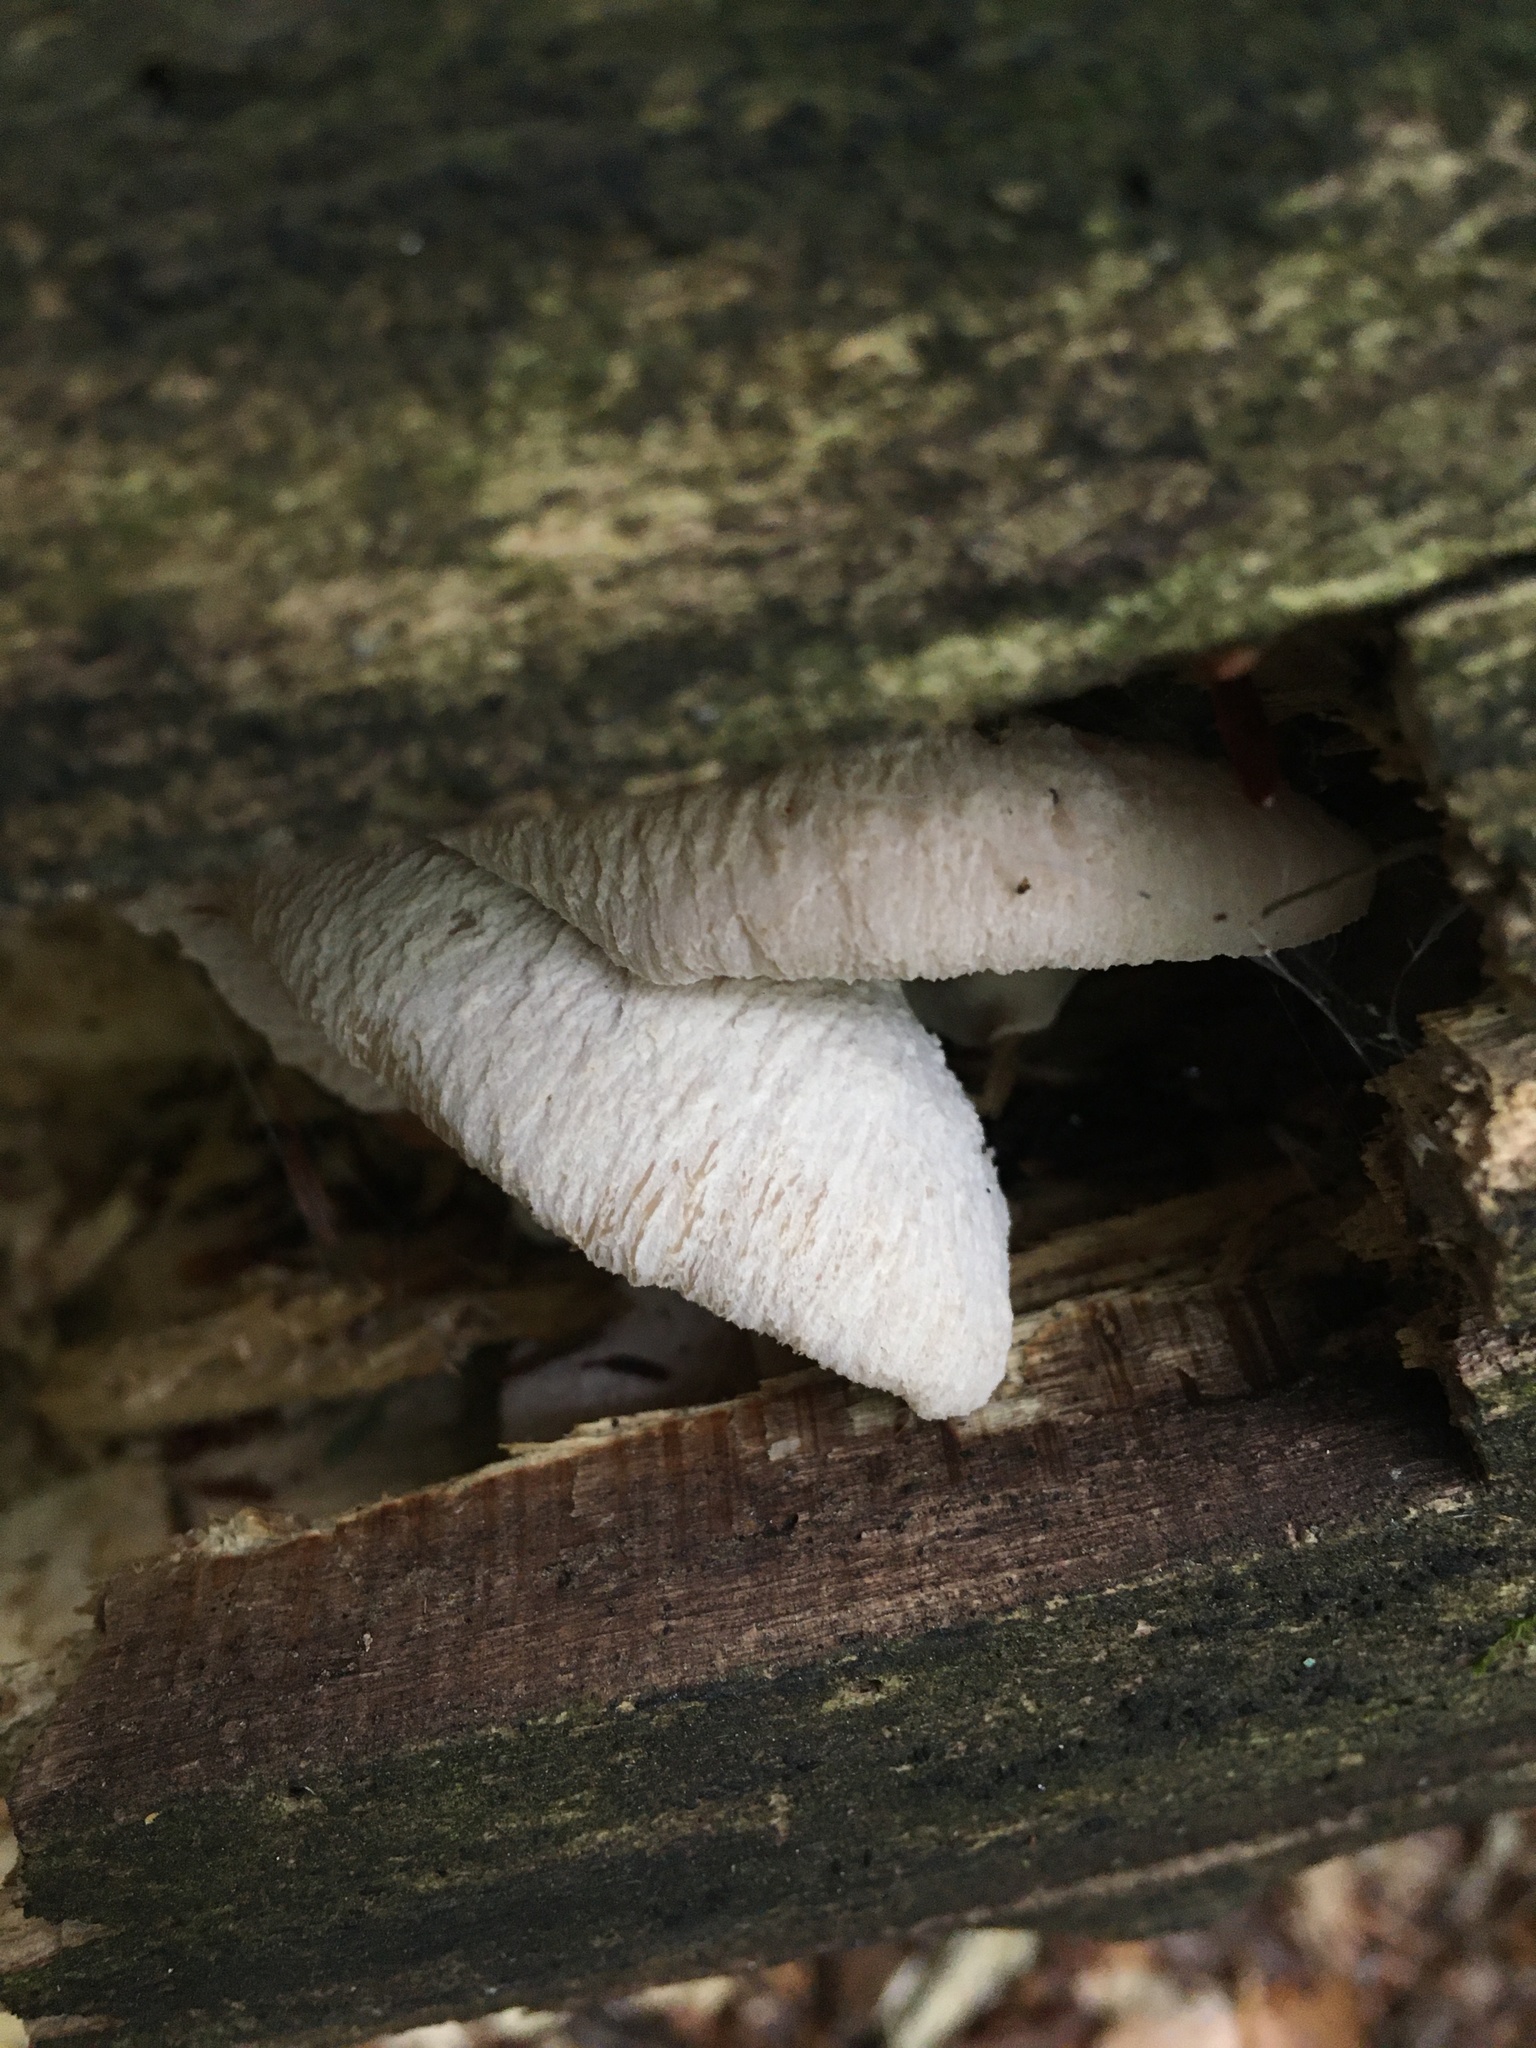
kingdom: Fungi
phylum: Basidiomycota
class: Agaricomycetes
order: Russulales
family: Auriscalpiaceae
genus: Lentinellus
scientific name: Lentinellus ursinus
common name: Bear lentinus
